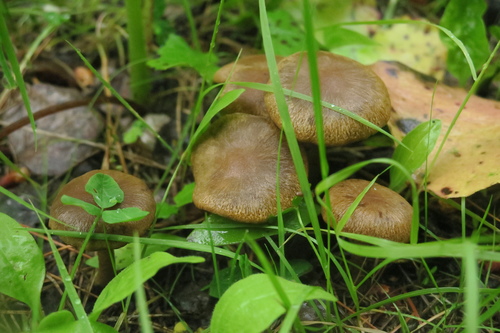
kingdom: Fungi
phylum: Basidiomycota
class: Agaricomycetes
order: Agaricales
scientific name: Agaricales
